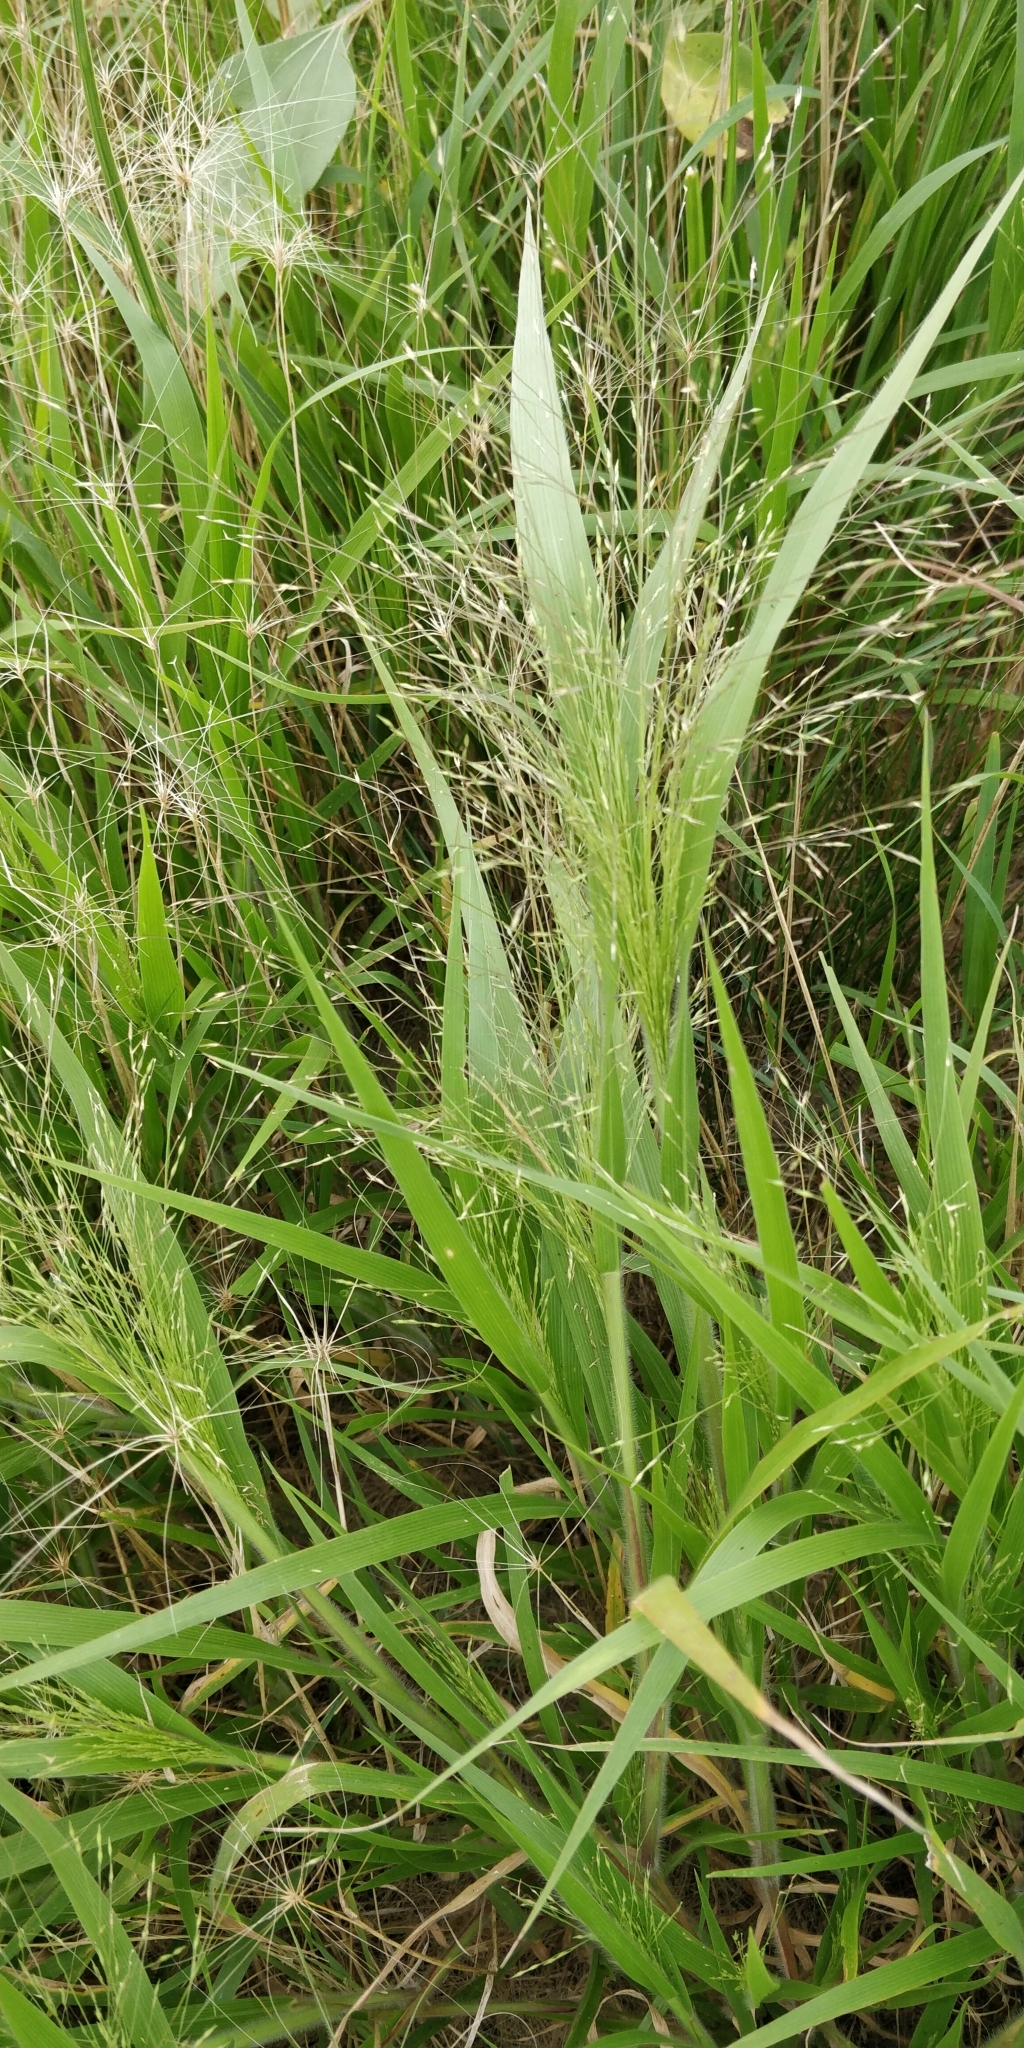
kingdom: Plantae
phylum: Tracheophyta
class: Liliopsida
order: Poales
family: Poaceae
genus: Panicum
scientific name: Panicum capillare
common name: Witch-grass
